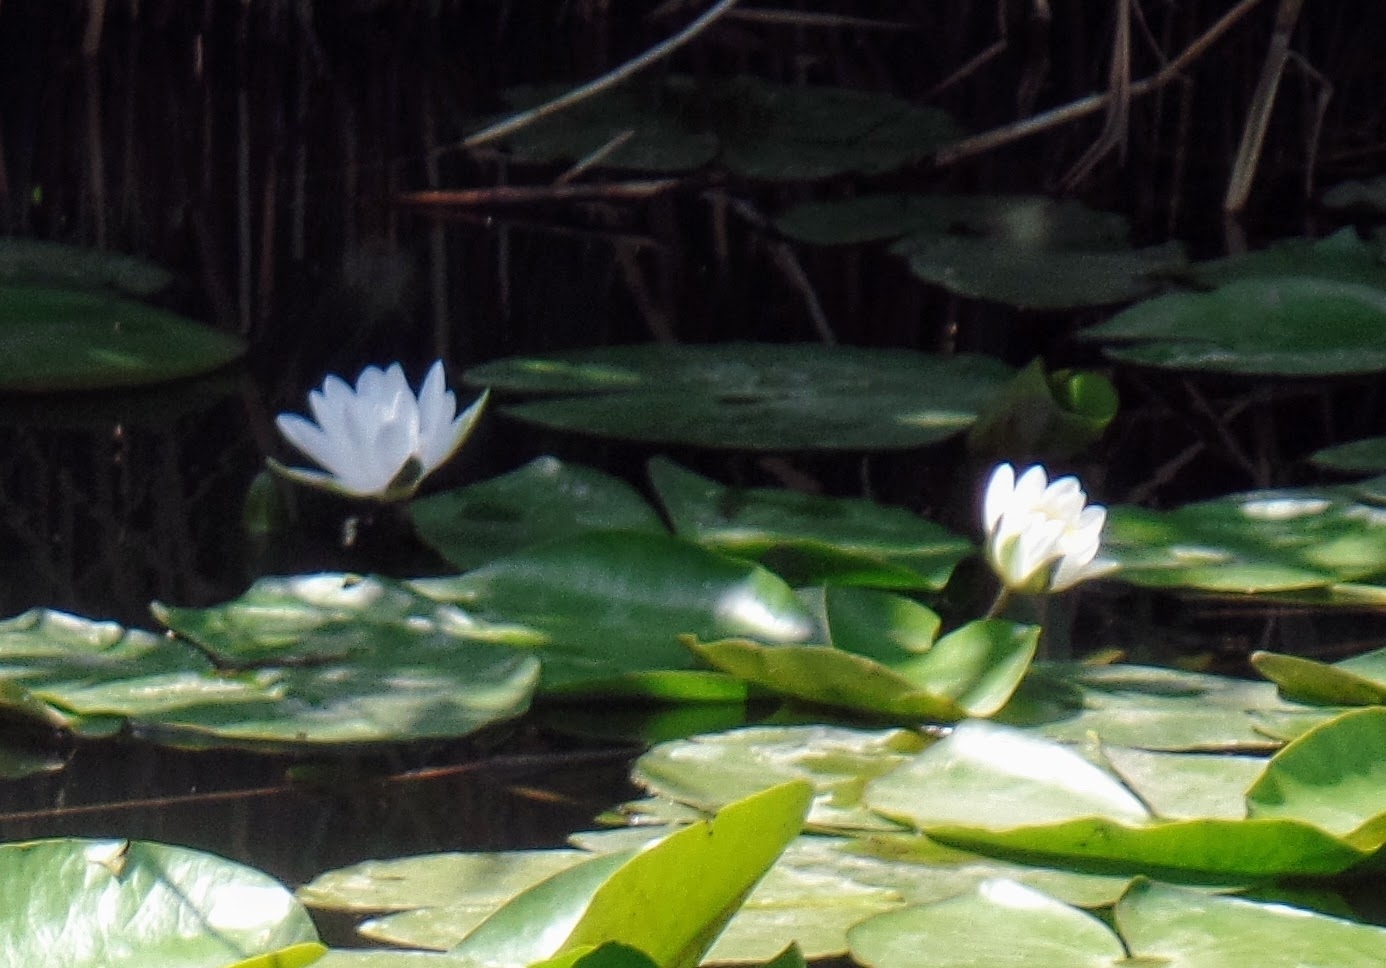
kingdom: Plantae
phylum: Tracheophyta
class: Magnoliopsida
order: Nymphaeales
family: Nymphaeaceae
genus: Nymphaea
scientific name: Nymphaea alba
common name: White water-lily
